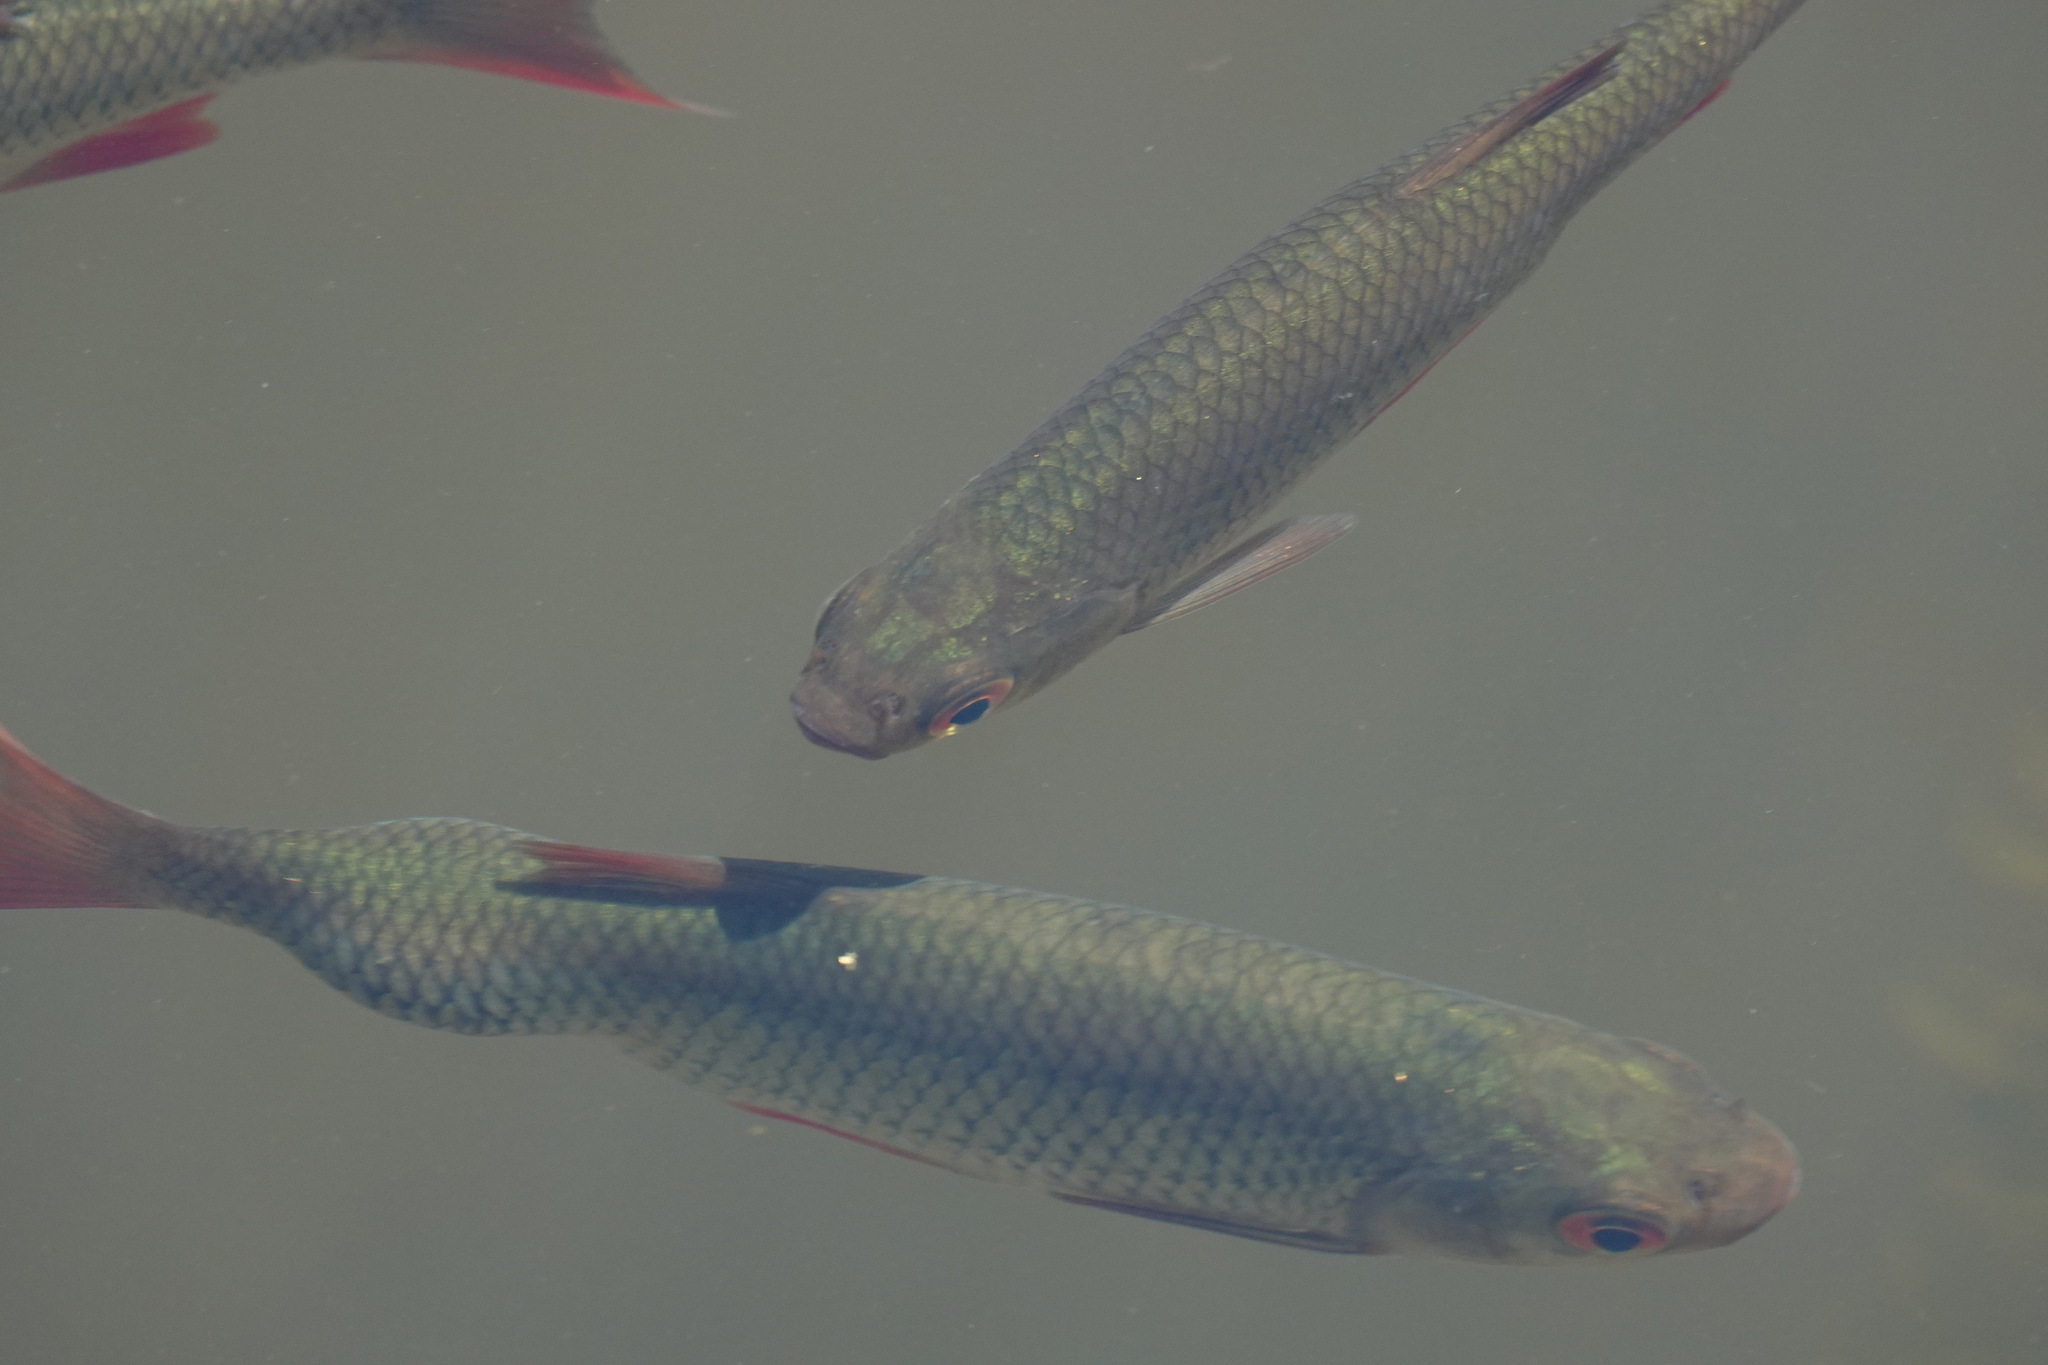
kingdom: Animalia
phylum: Chordata
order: Cypriniformes
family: Cyprinidae
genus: Rutilus
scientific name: Rutilus rutilus
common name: Roach
